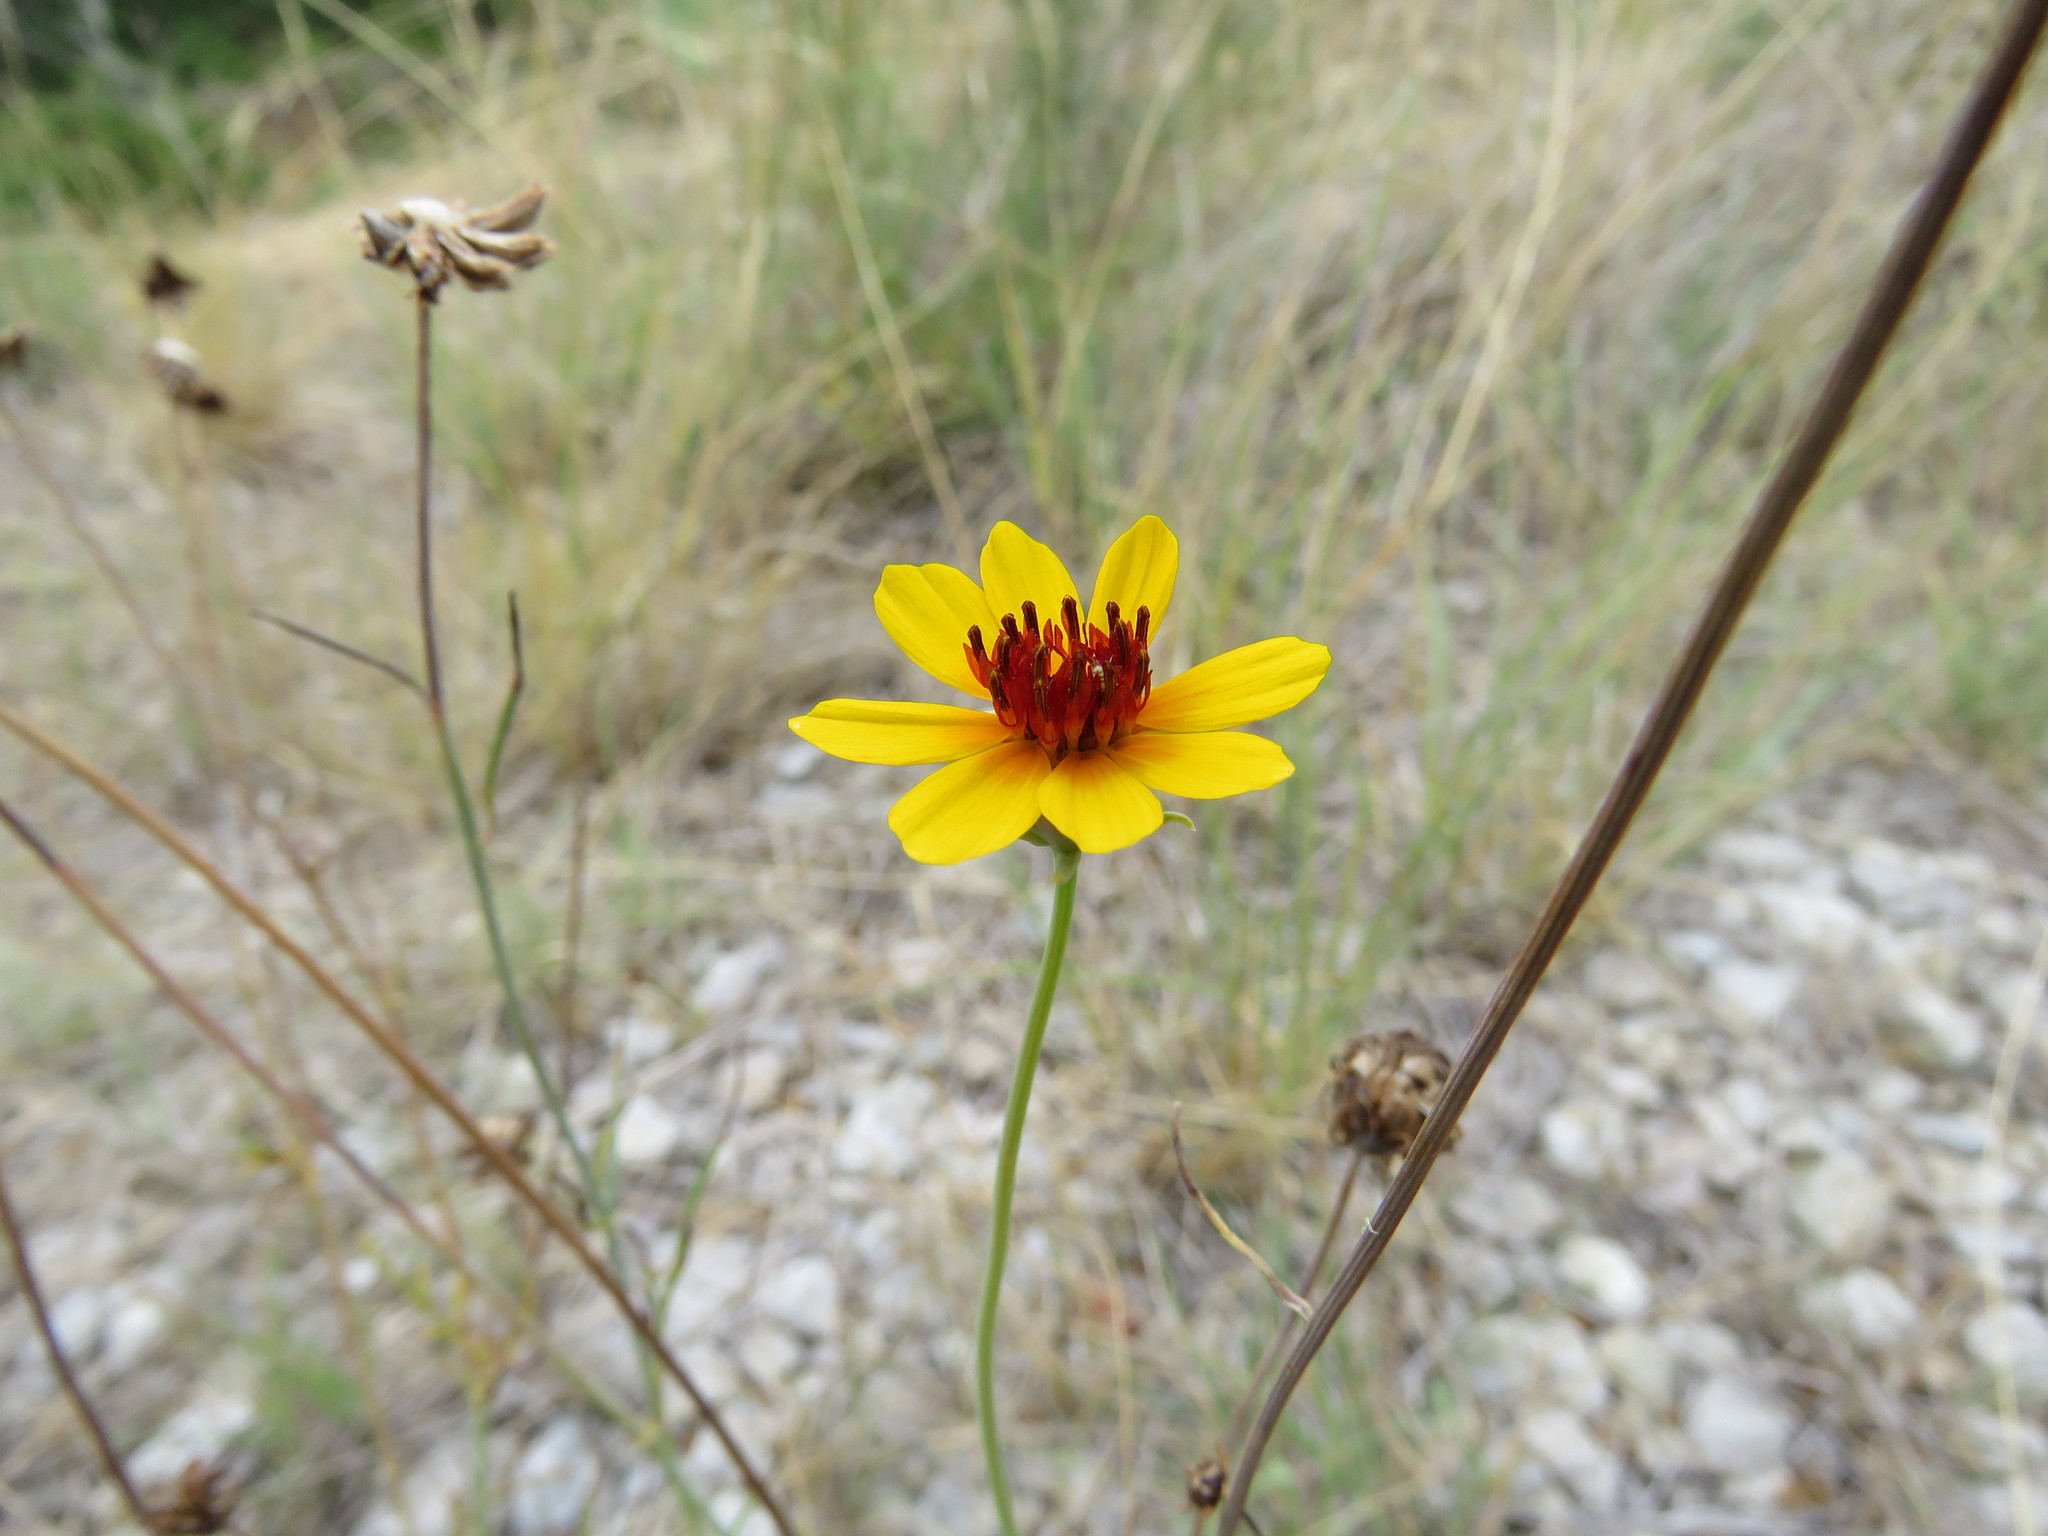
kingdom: Plantae
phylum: Tracheophyta
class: Magnoliopsida
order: Asterales
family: Asteraceae
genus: Thelesperma
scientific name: Thelesperma filifolium
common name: Stiff greenthread
